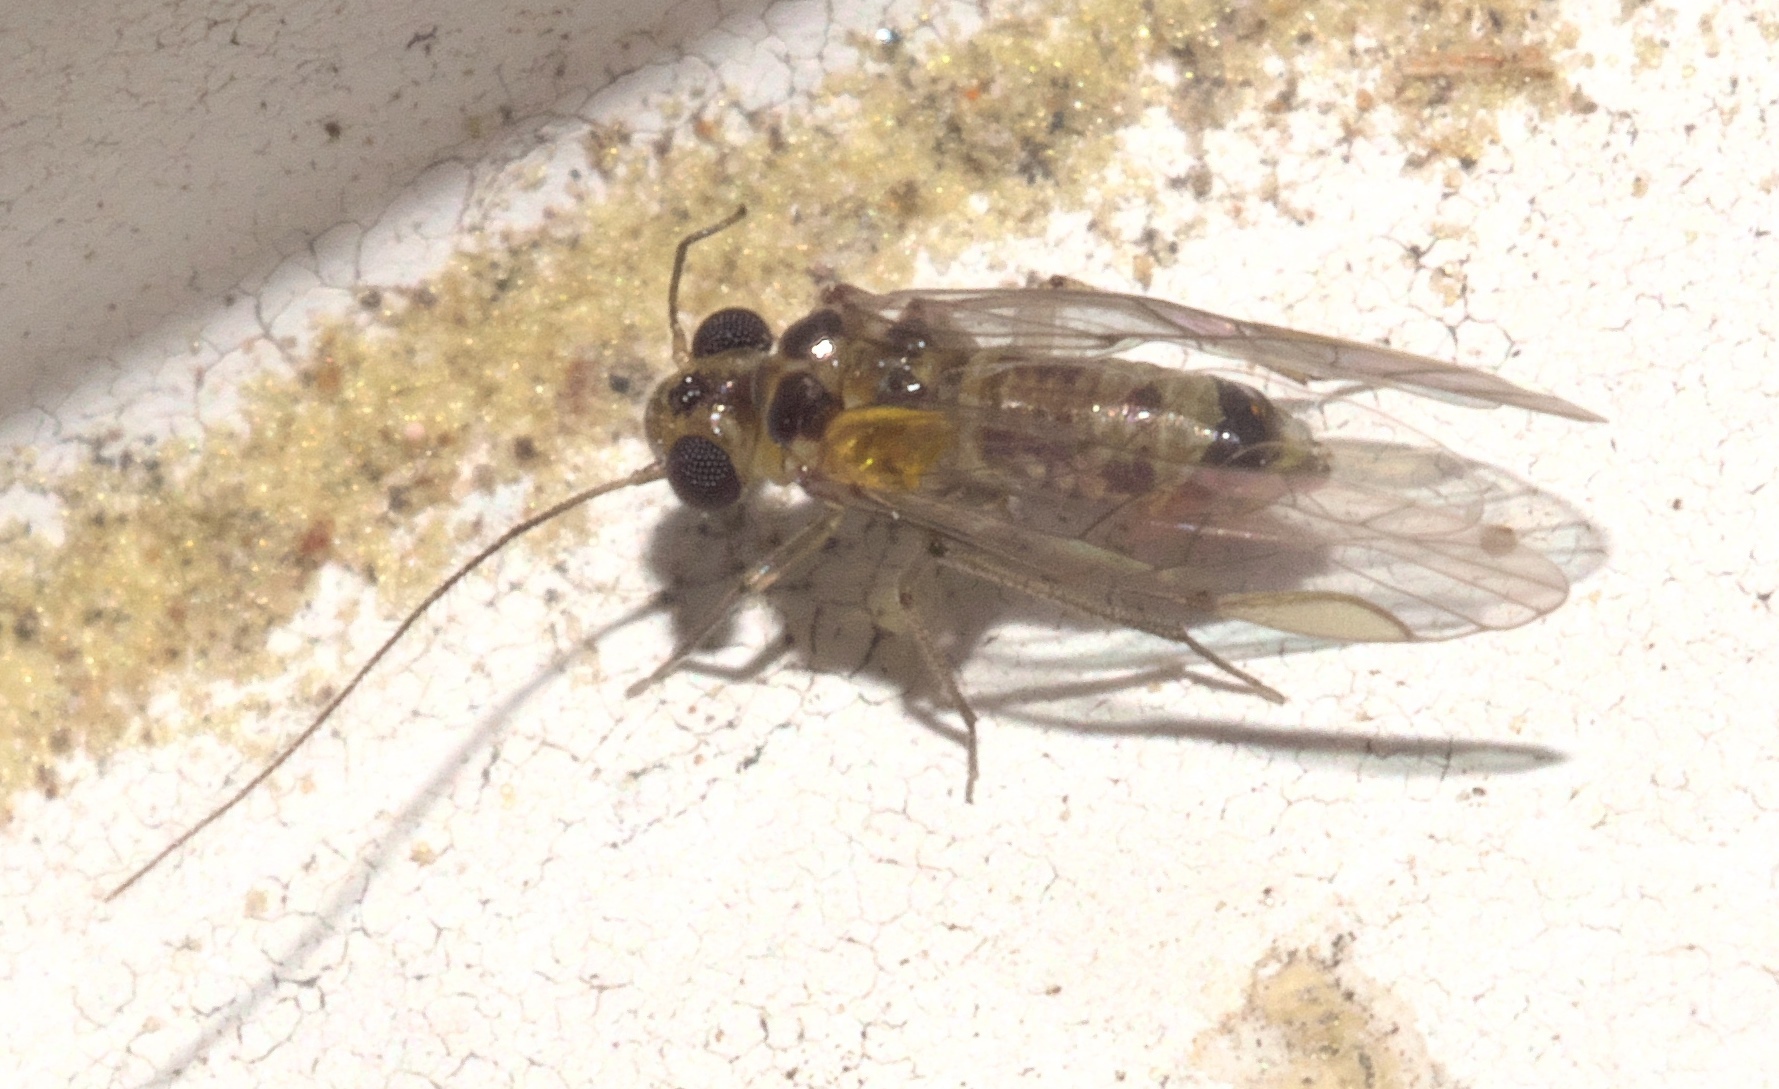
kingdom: Animalia
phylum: Arthropoda
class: Insecta
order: Psocodea
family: Psocidae
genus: Blastopsocus
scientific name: Blastopsocus variabilis
